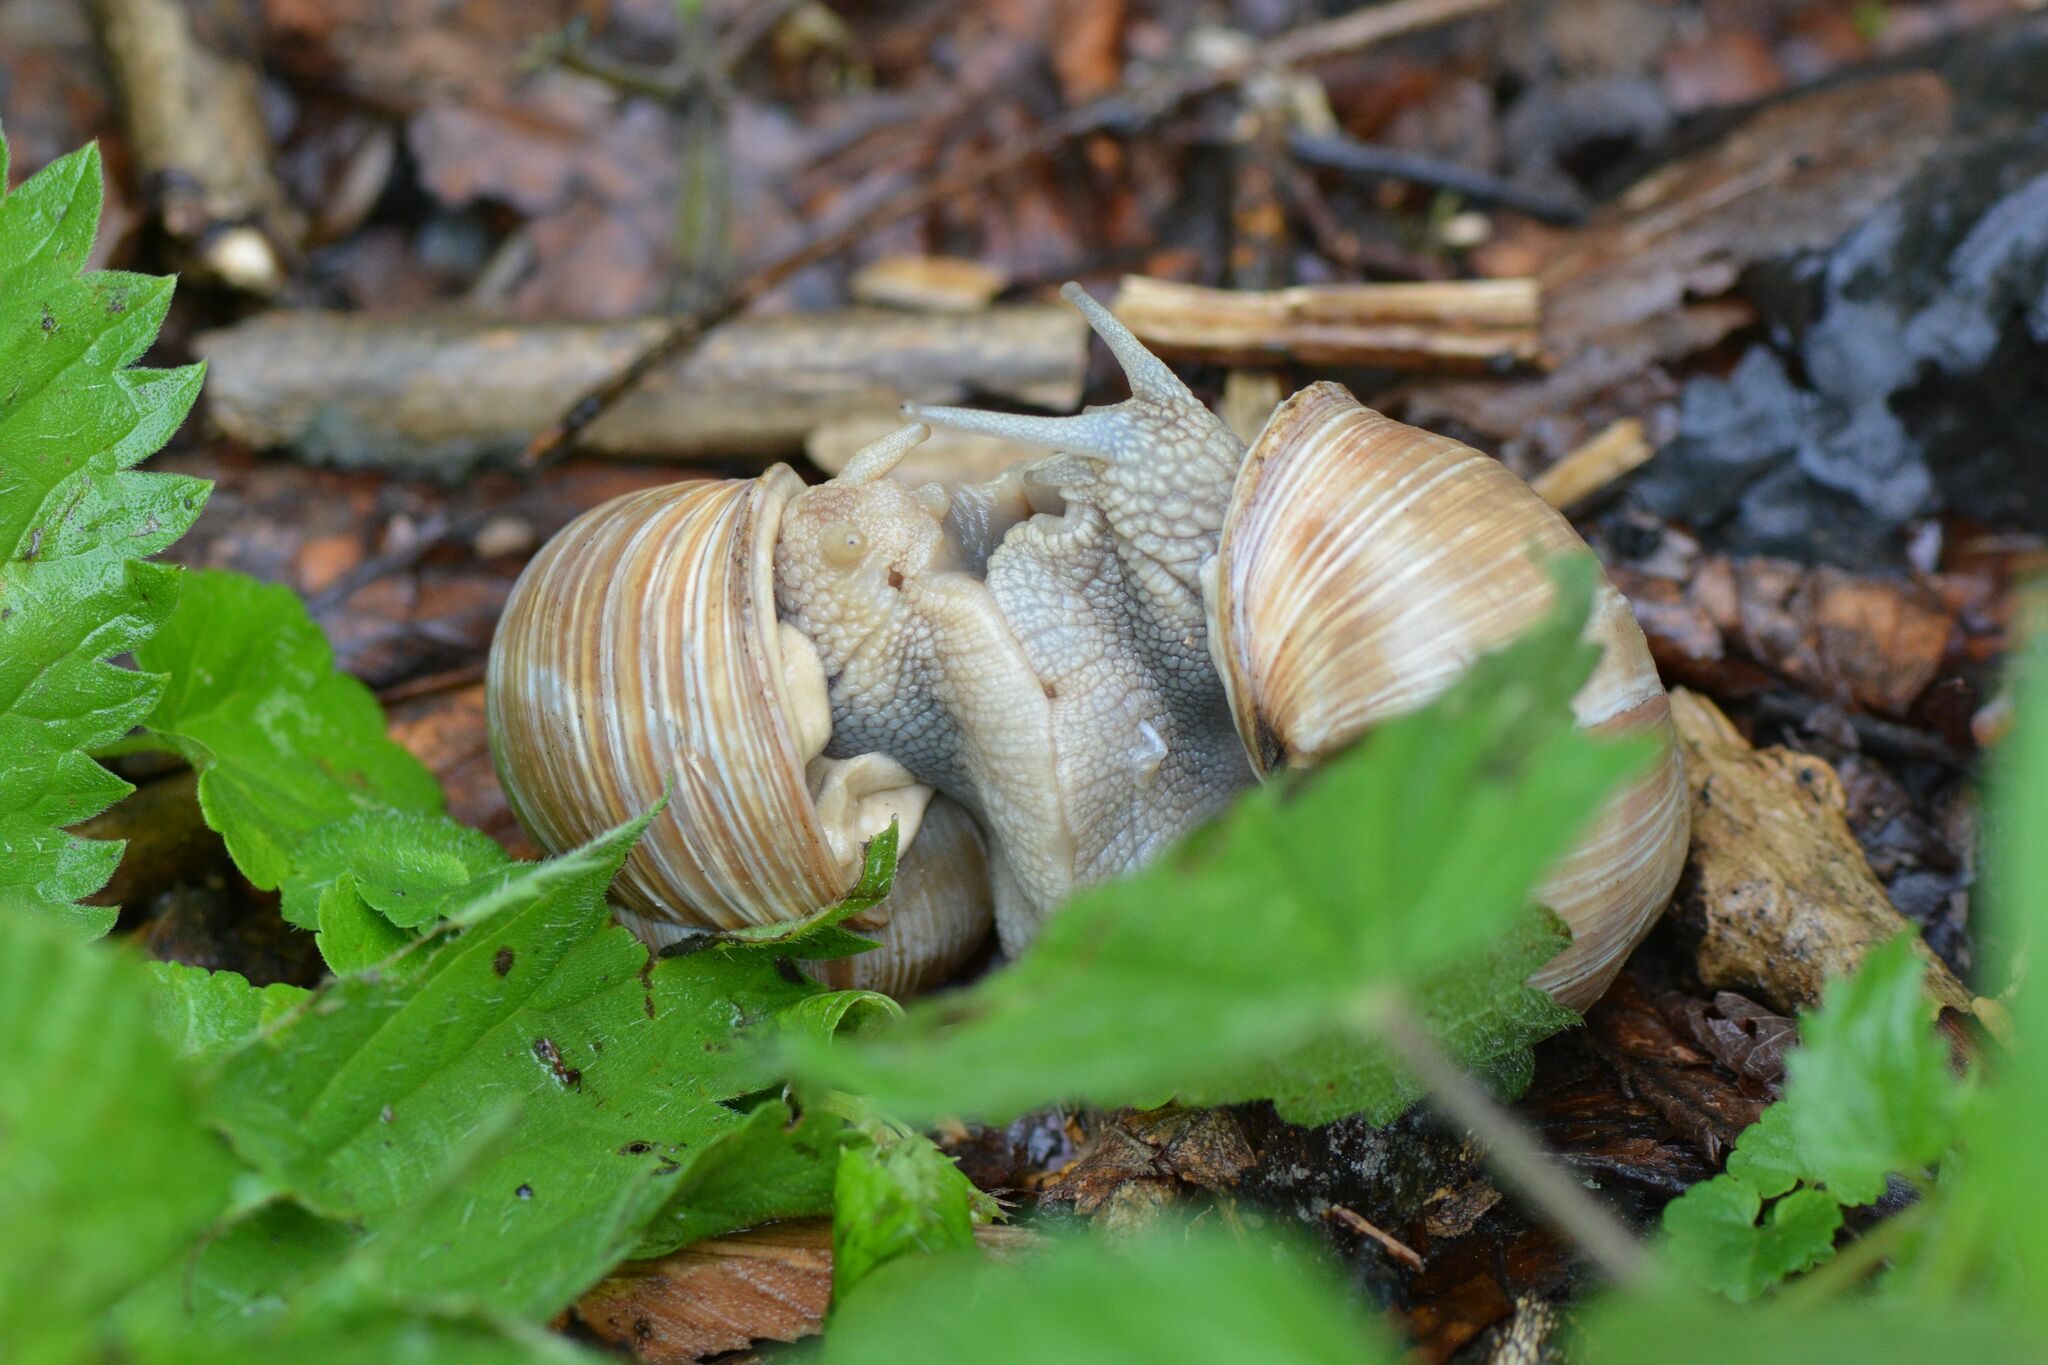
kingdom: Animalia
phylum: Mollusca
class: Gastropoda
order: Stylommatophora
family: Helicidae
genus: Helix
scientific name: Helix pomatia
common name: Roman snail
